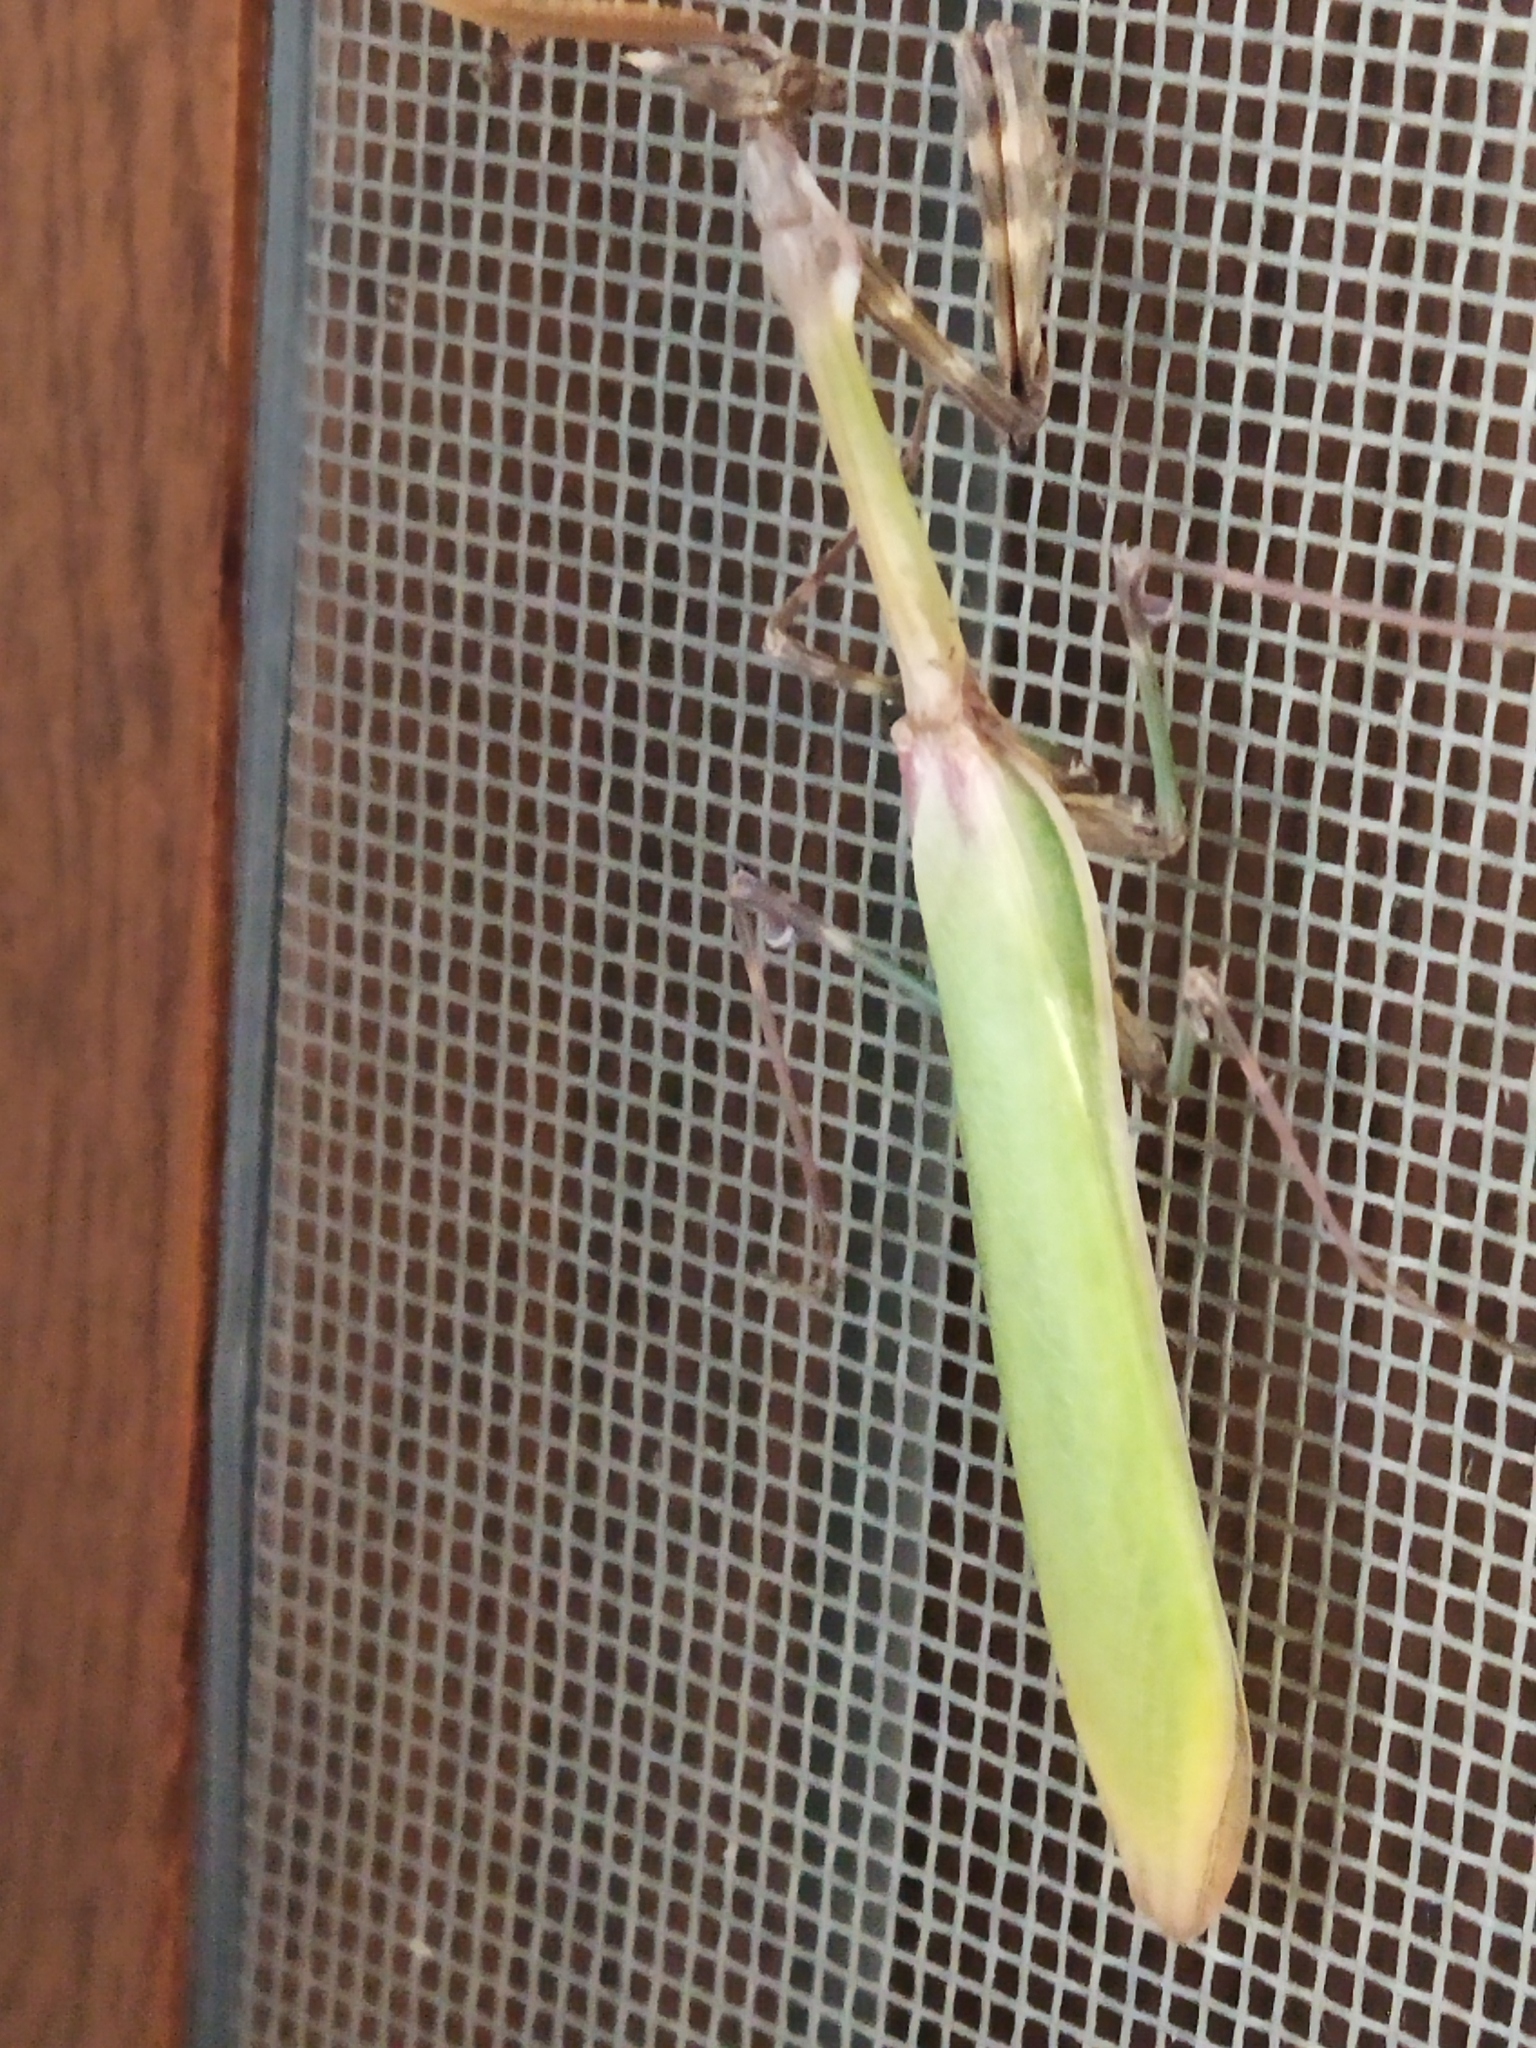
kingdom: Animalia
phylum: Arthropoda
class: Insecta
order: Mantodea
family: Empusidae
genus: Empusa
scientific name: Empusa fasciata
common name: Devil's mare
